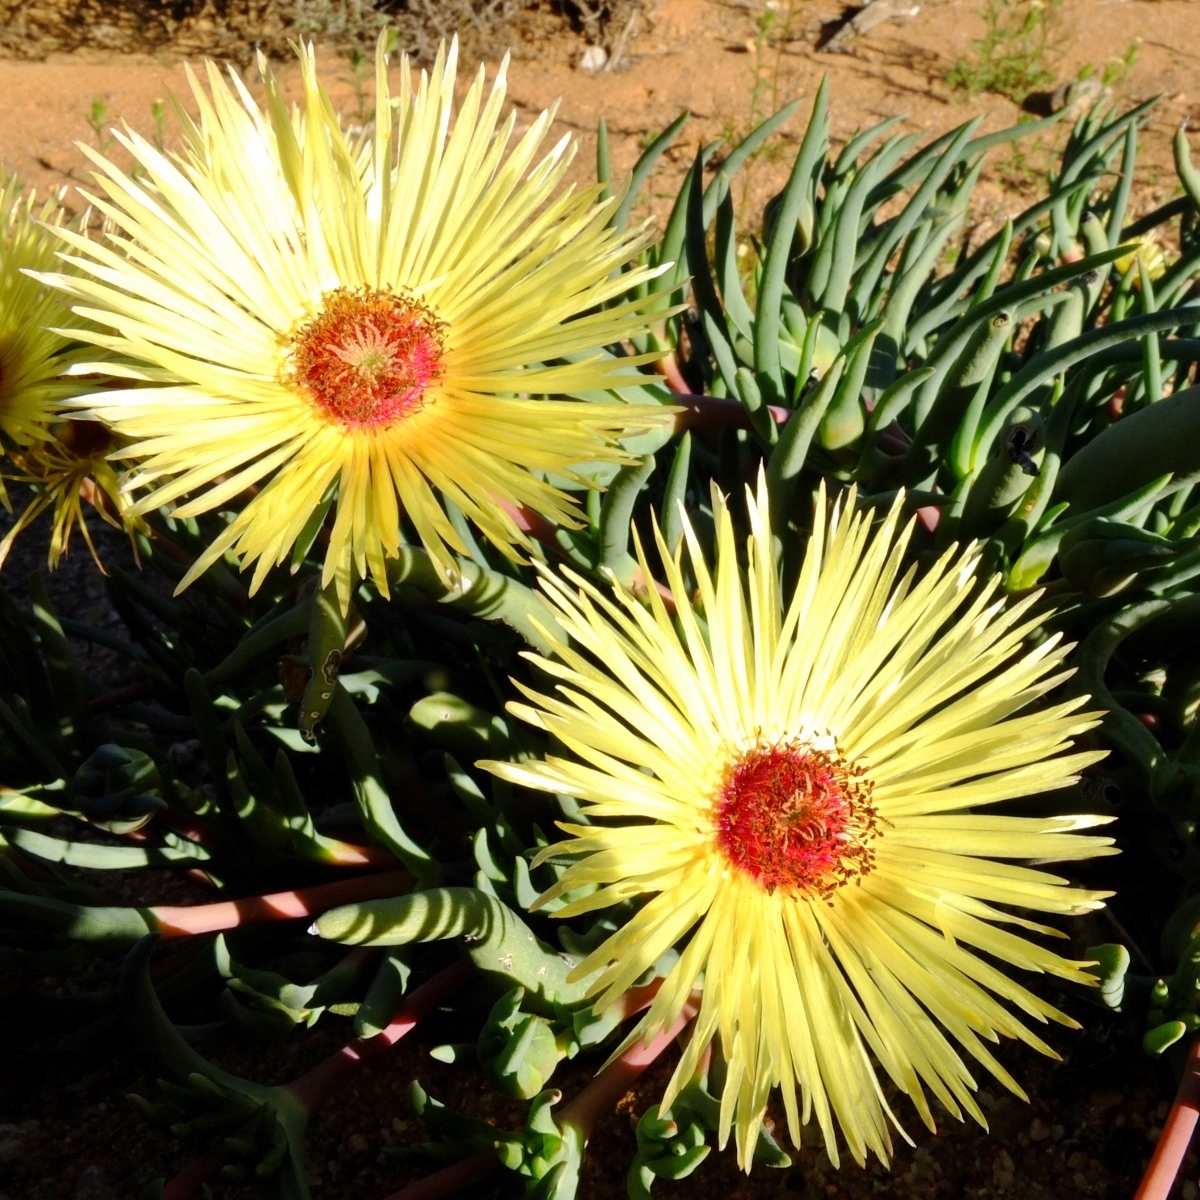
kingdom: Plantae
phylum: Tracheophyta
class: Magnoliopsida
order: Caryophyllales
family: Aizoaceae
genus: Cephalophyllum
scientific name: Cephalophyllum pillansii
